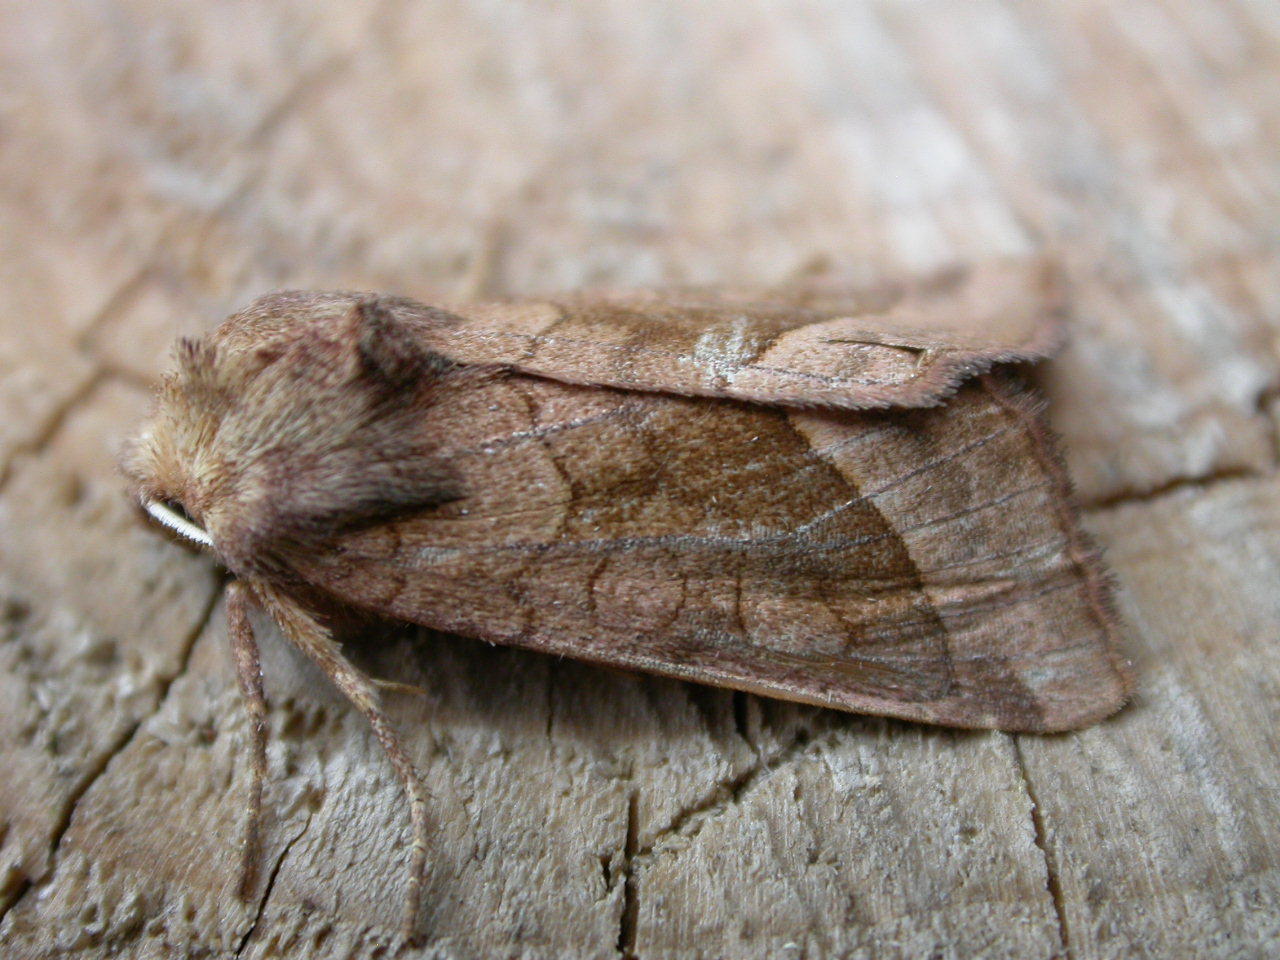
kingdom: Animalia
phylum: Arthropoda
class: Insecta
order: Lepidoptera
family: Noctuidae
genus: Hydraecia
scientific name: Hydraecia micacea
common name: Rosy rustic
